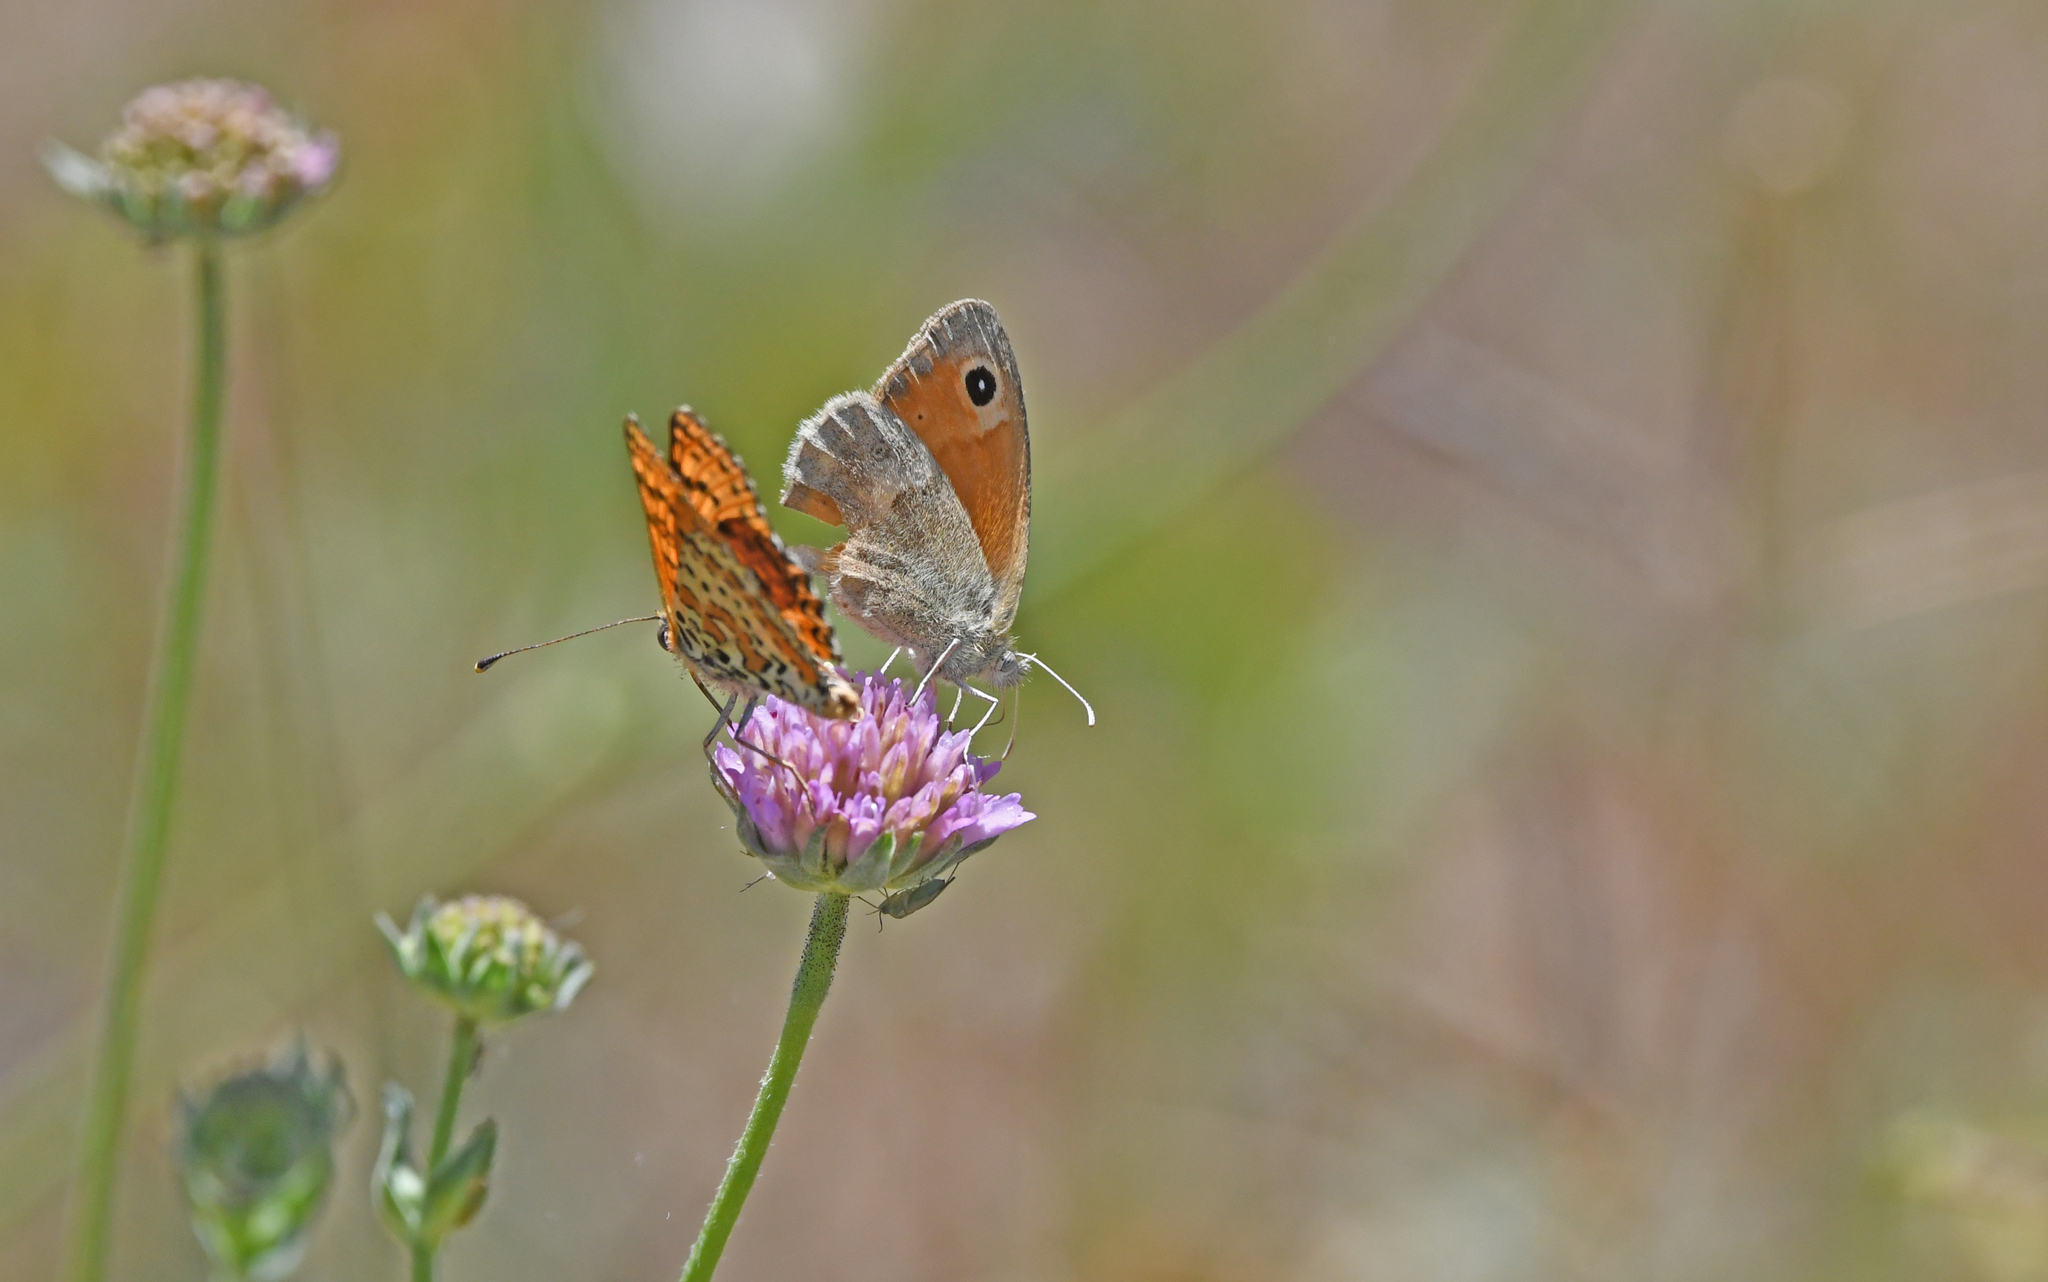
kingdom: Animalia
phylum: Arthropoda
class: Insecta
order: Lepidoptera
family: Nymphalidae
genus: Coenonympha
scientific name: Coenonympha pamphilus
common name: Small heath
